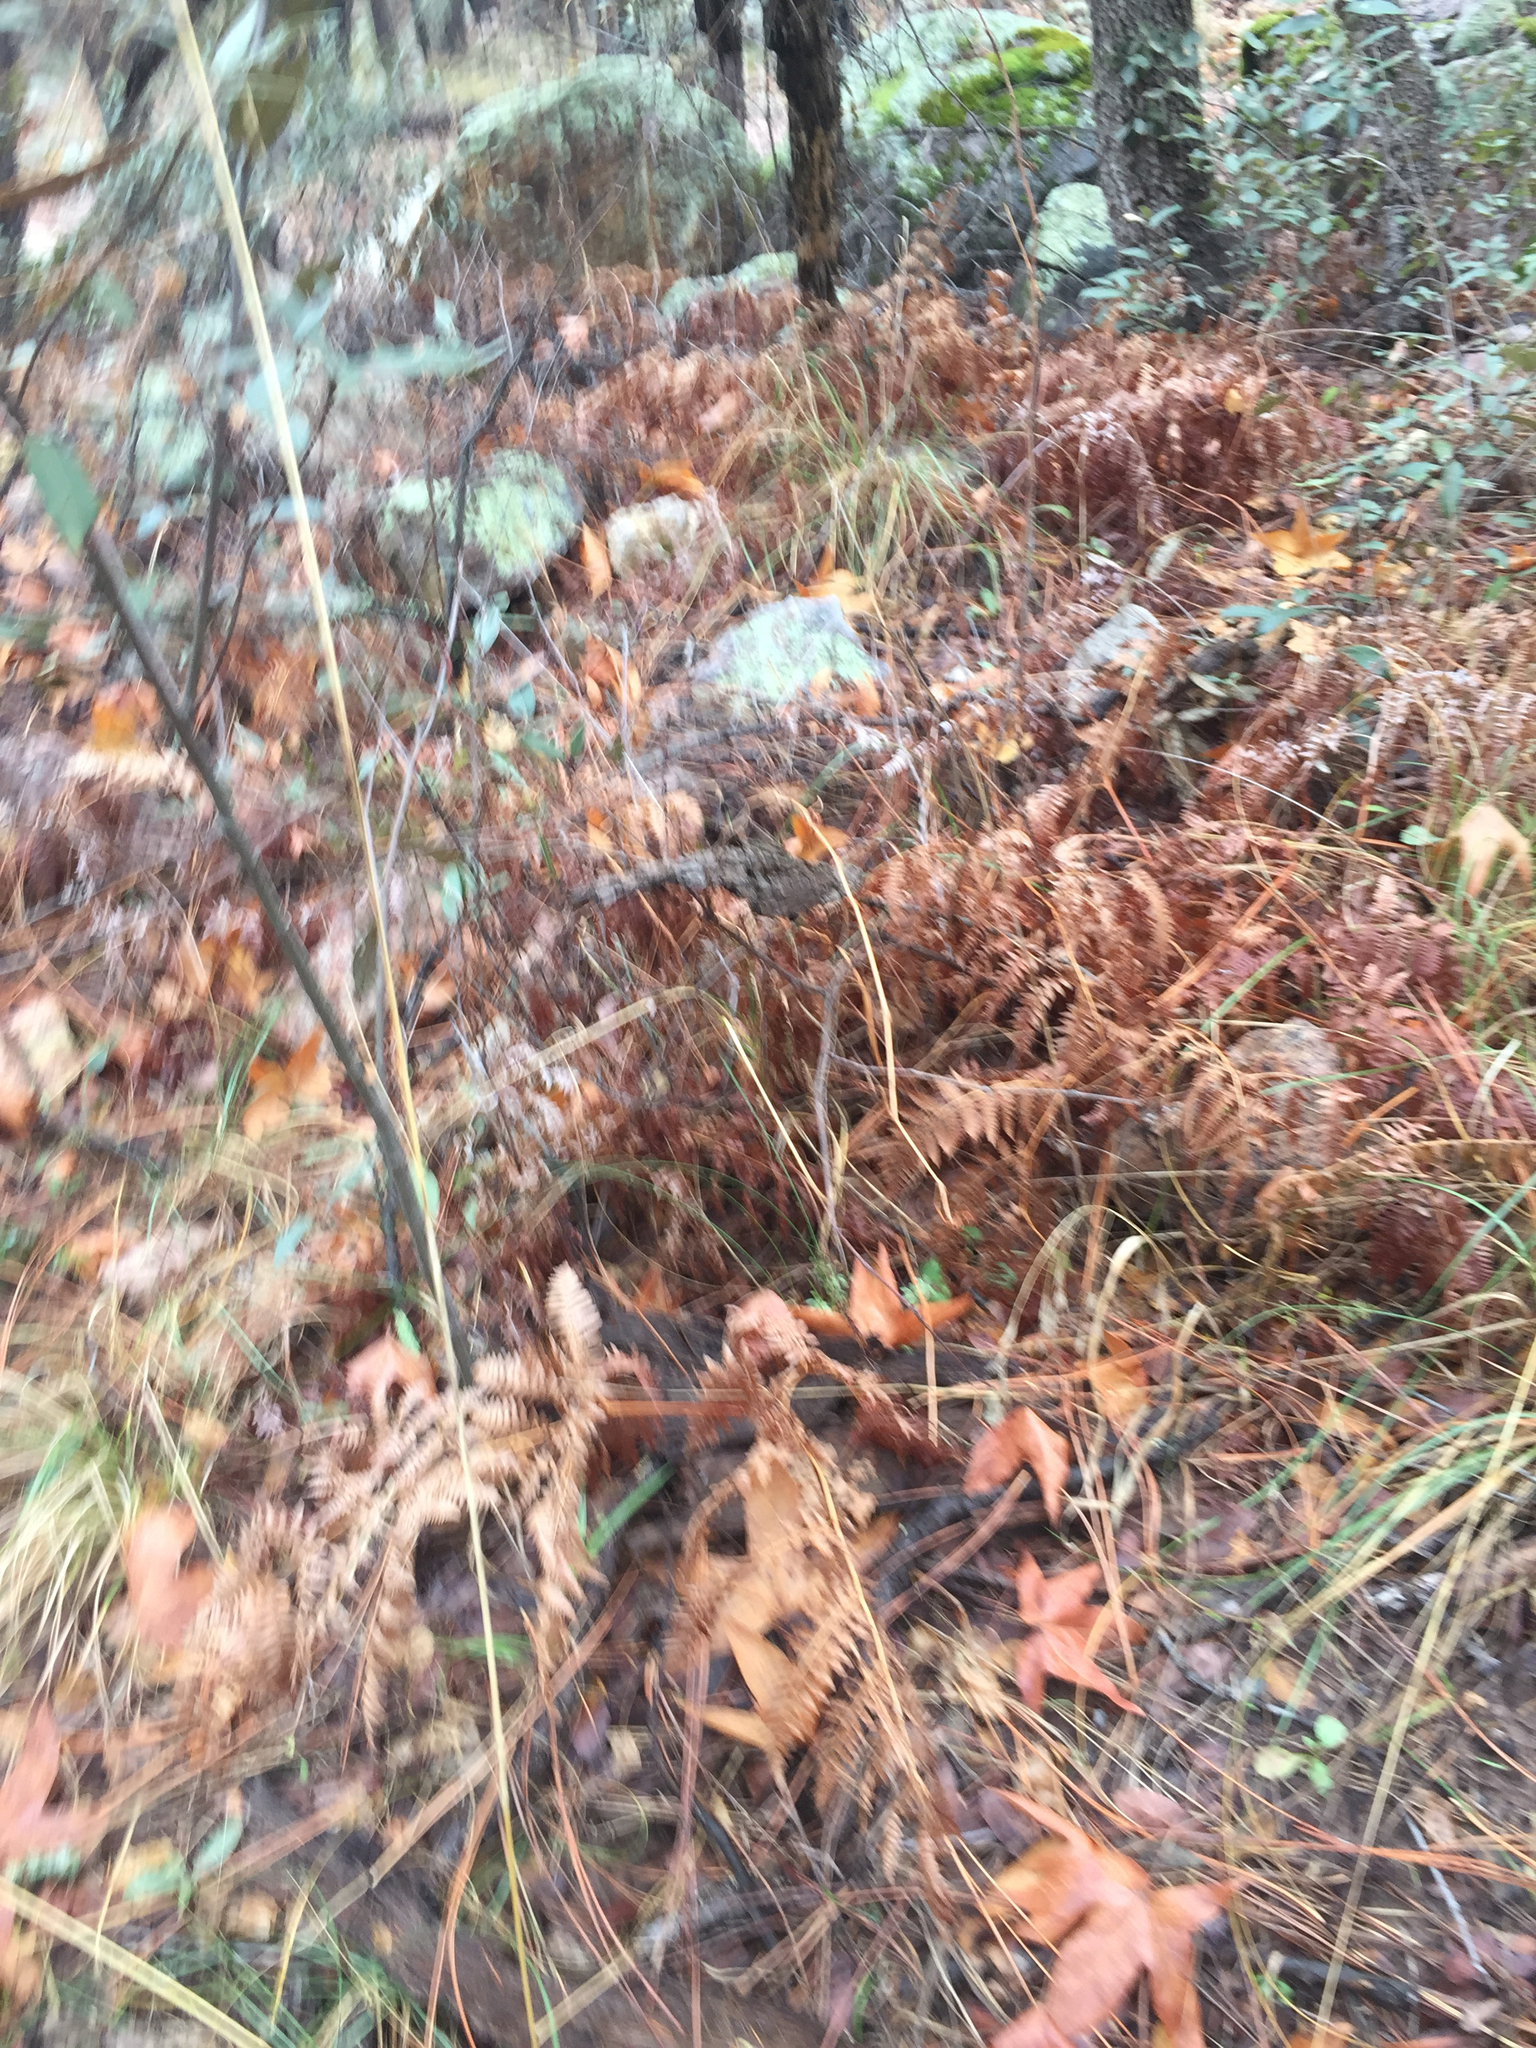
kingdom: Plantae
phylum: Tracheophyta
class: Polypodiopsida
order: Polypodiales
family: Dennstaedtiaceae
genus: Pteridium
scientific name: Pteridium aquilinum
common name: Bracken
